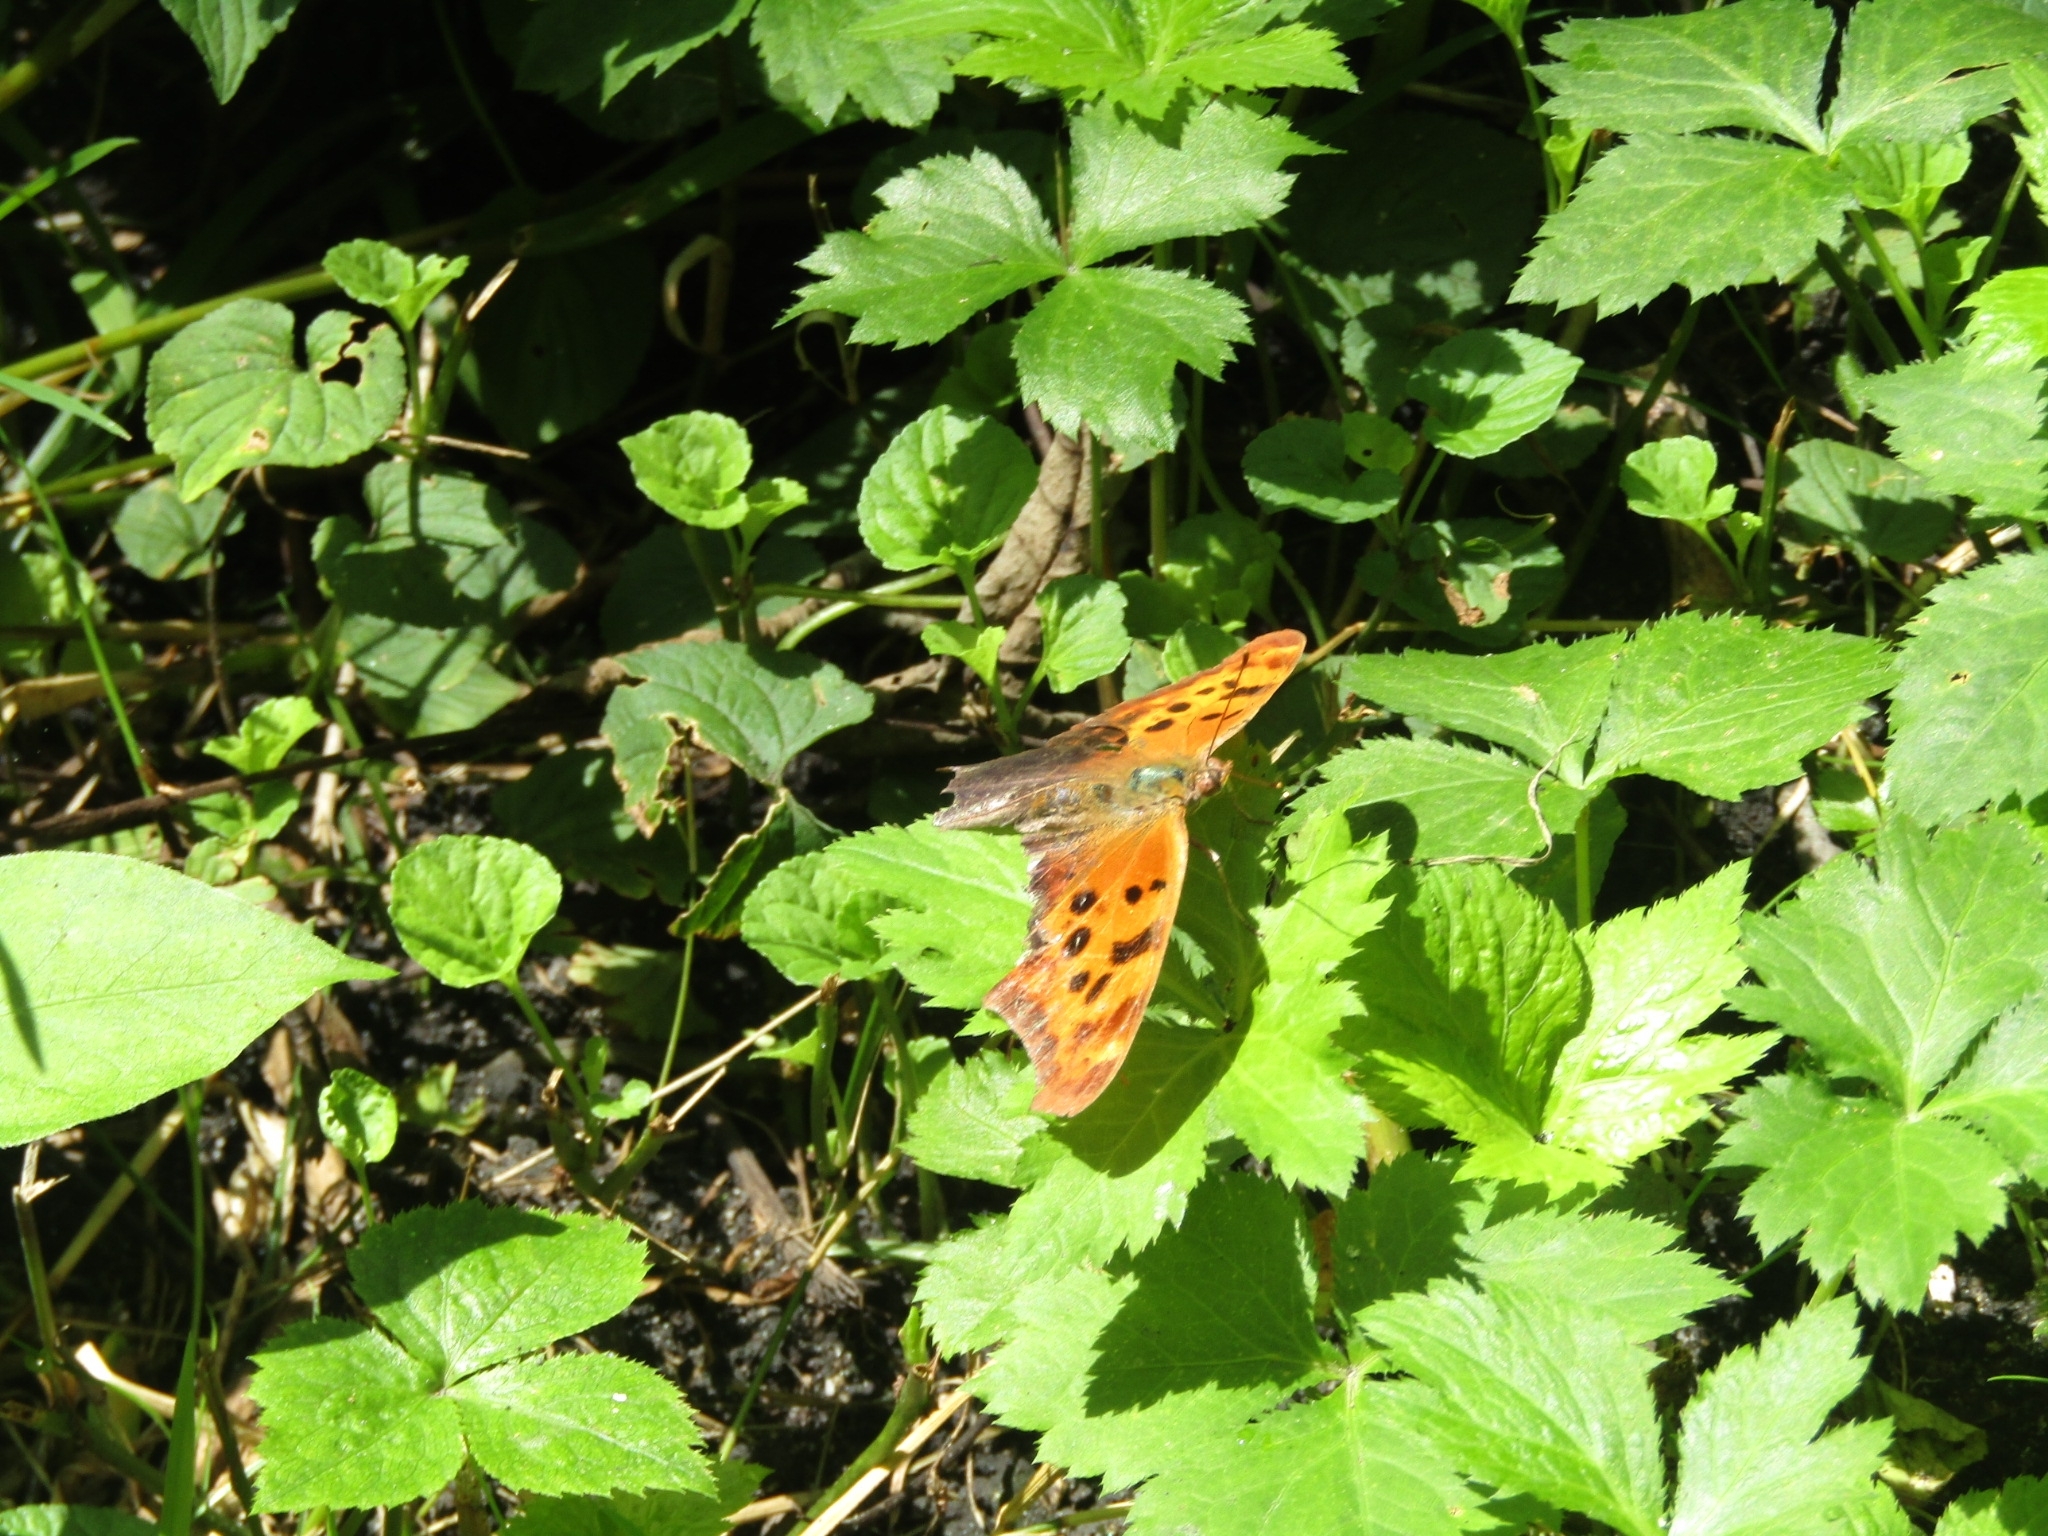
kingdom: Animalia
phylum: Arthropoda
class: Insecta
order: Lepidoptera
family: Nymphalidae
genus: Polygonia
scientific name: Polygonia interrogationis
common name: Question mark
